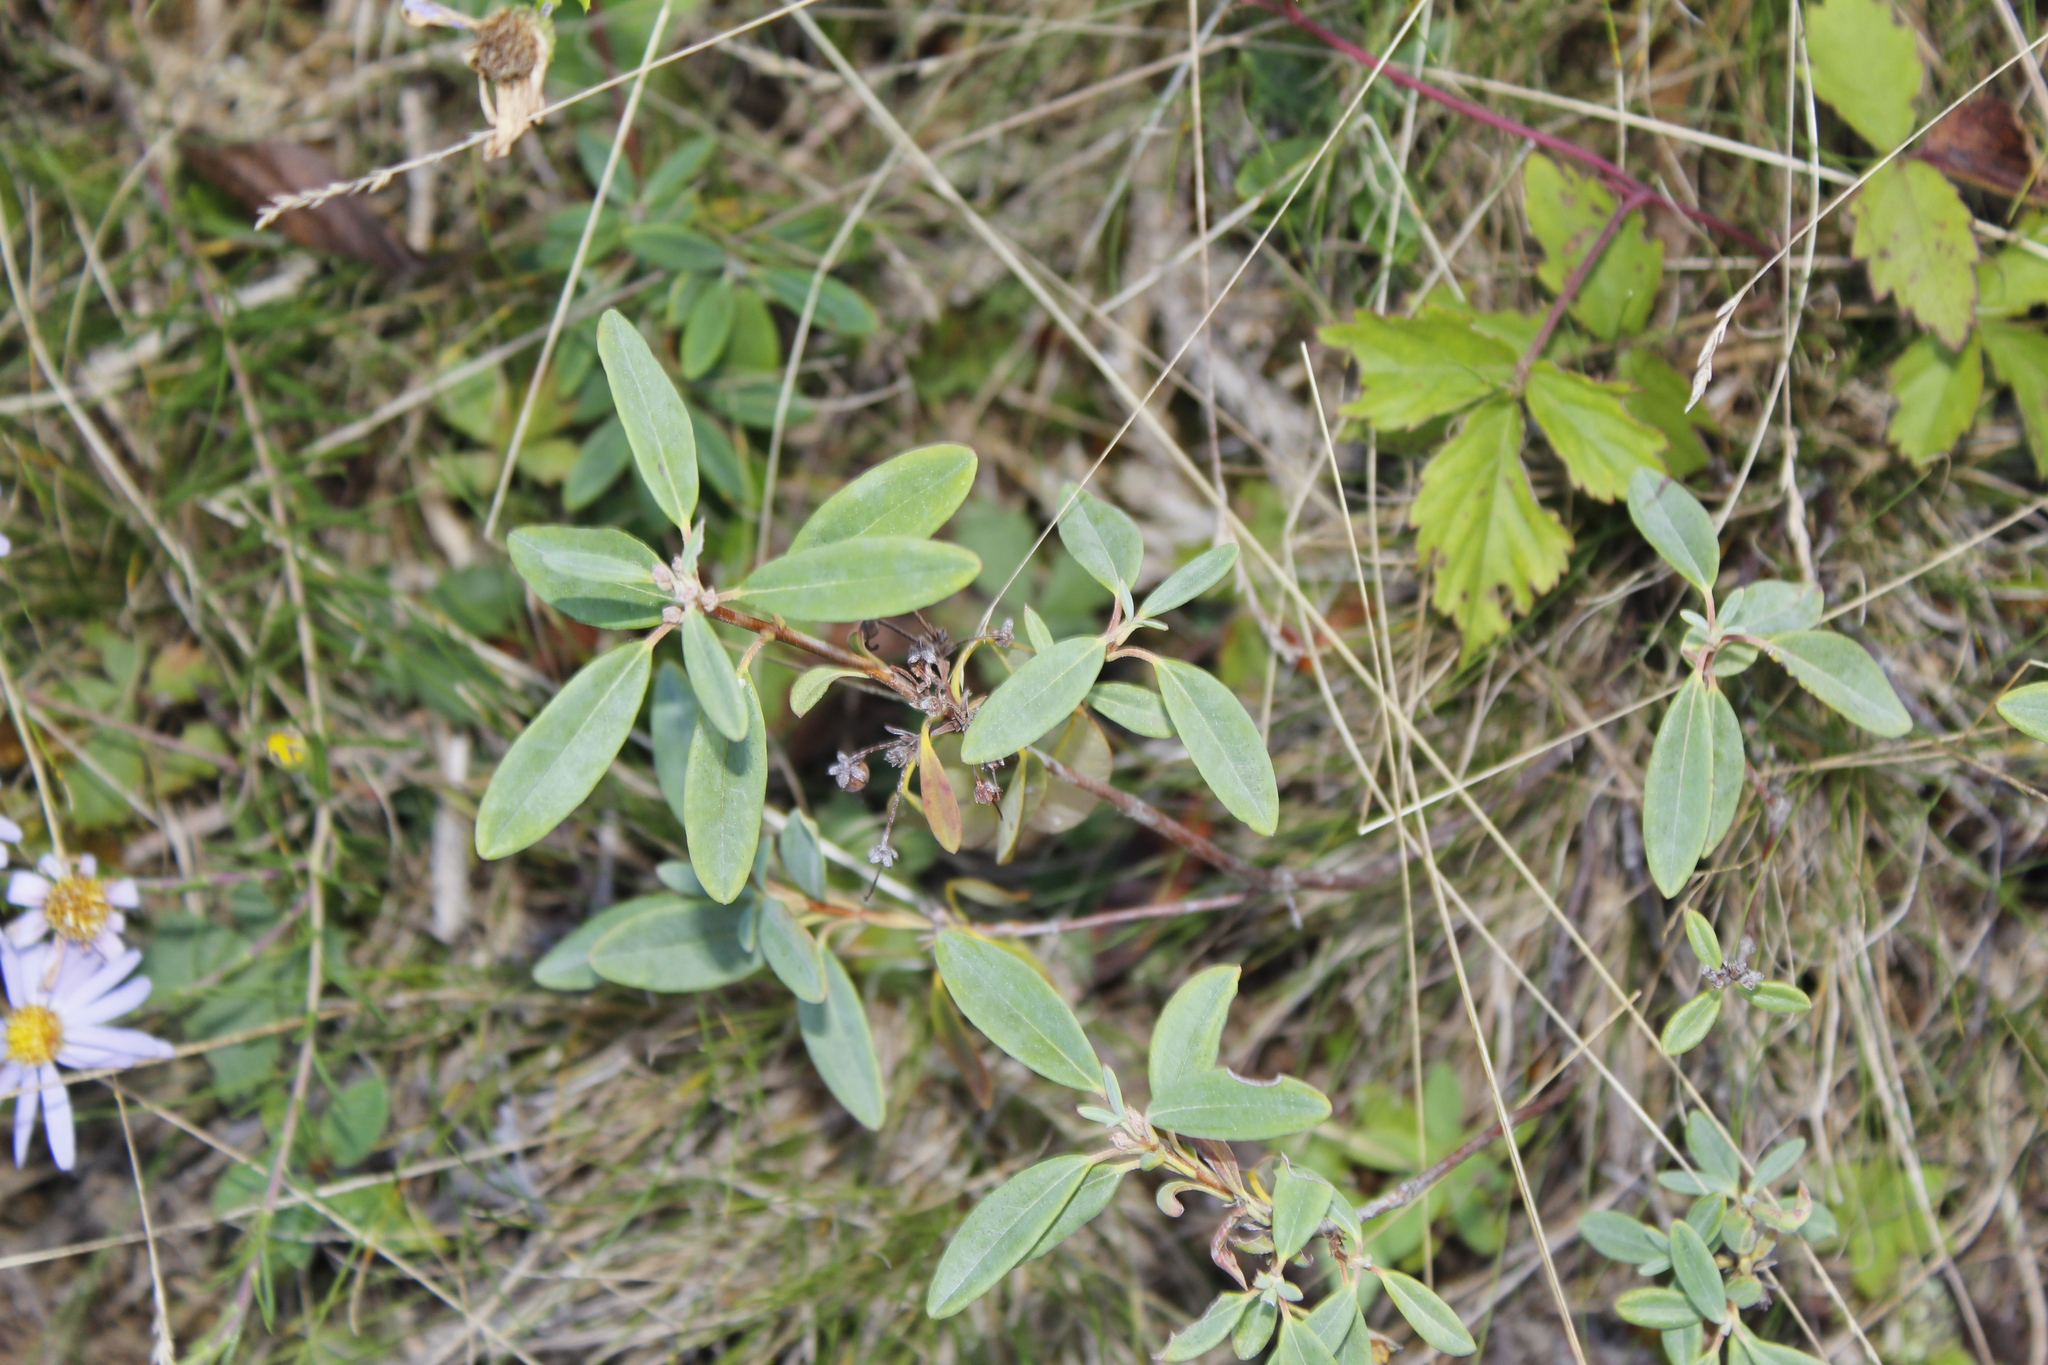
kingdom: Plantae
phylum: Tracheophyta
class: Magnoliopsida
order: Ericales
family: Ericaceae
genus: Kalmia
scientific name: Kalmia angustifolia
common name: Sheep-laurel
